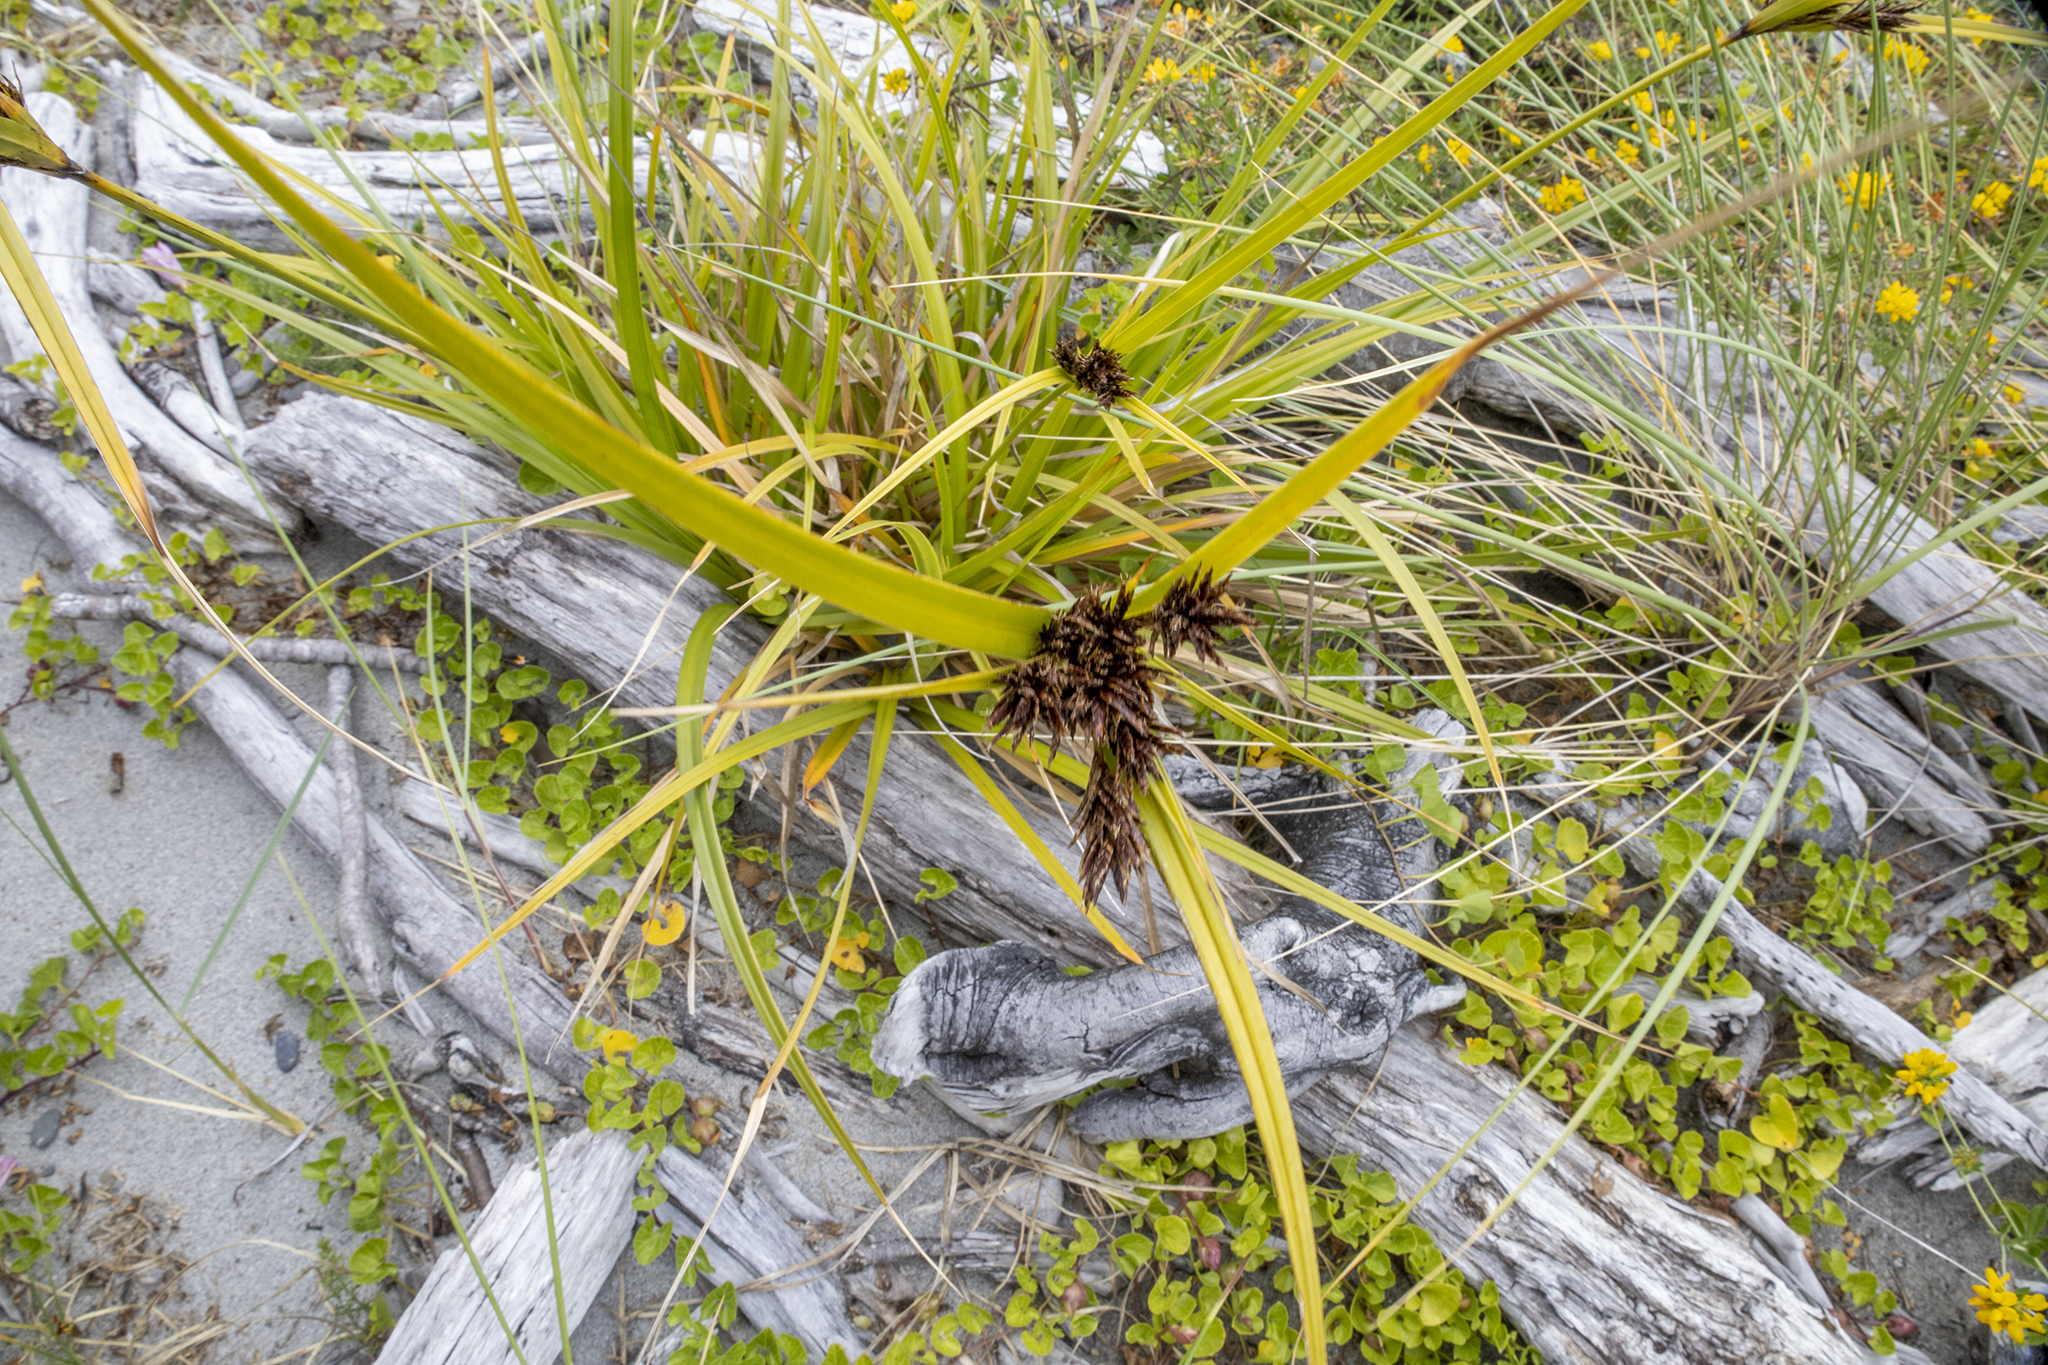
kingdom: Plantae
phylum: Tracheophyta
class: Liliopsida
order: Poales
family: Cyperaceae
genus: Cyperus
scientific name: Cyperus ustulatus
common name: Giant umbrella-sedge
